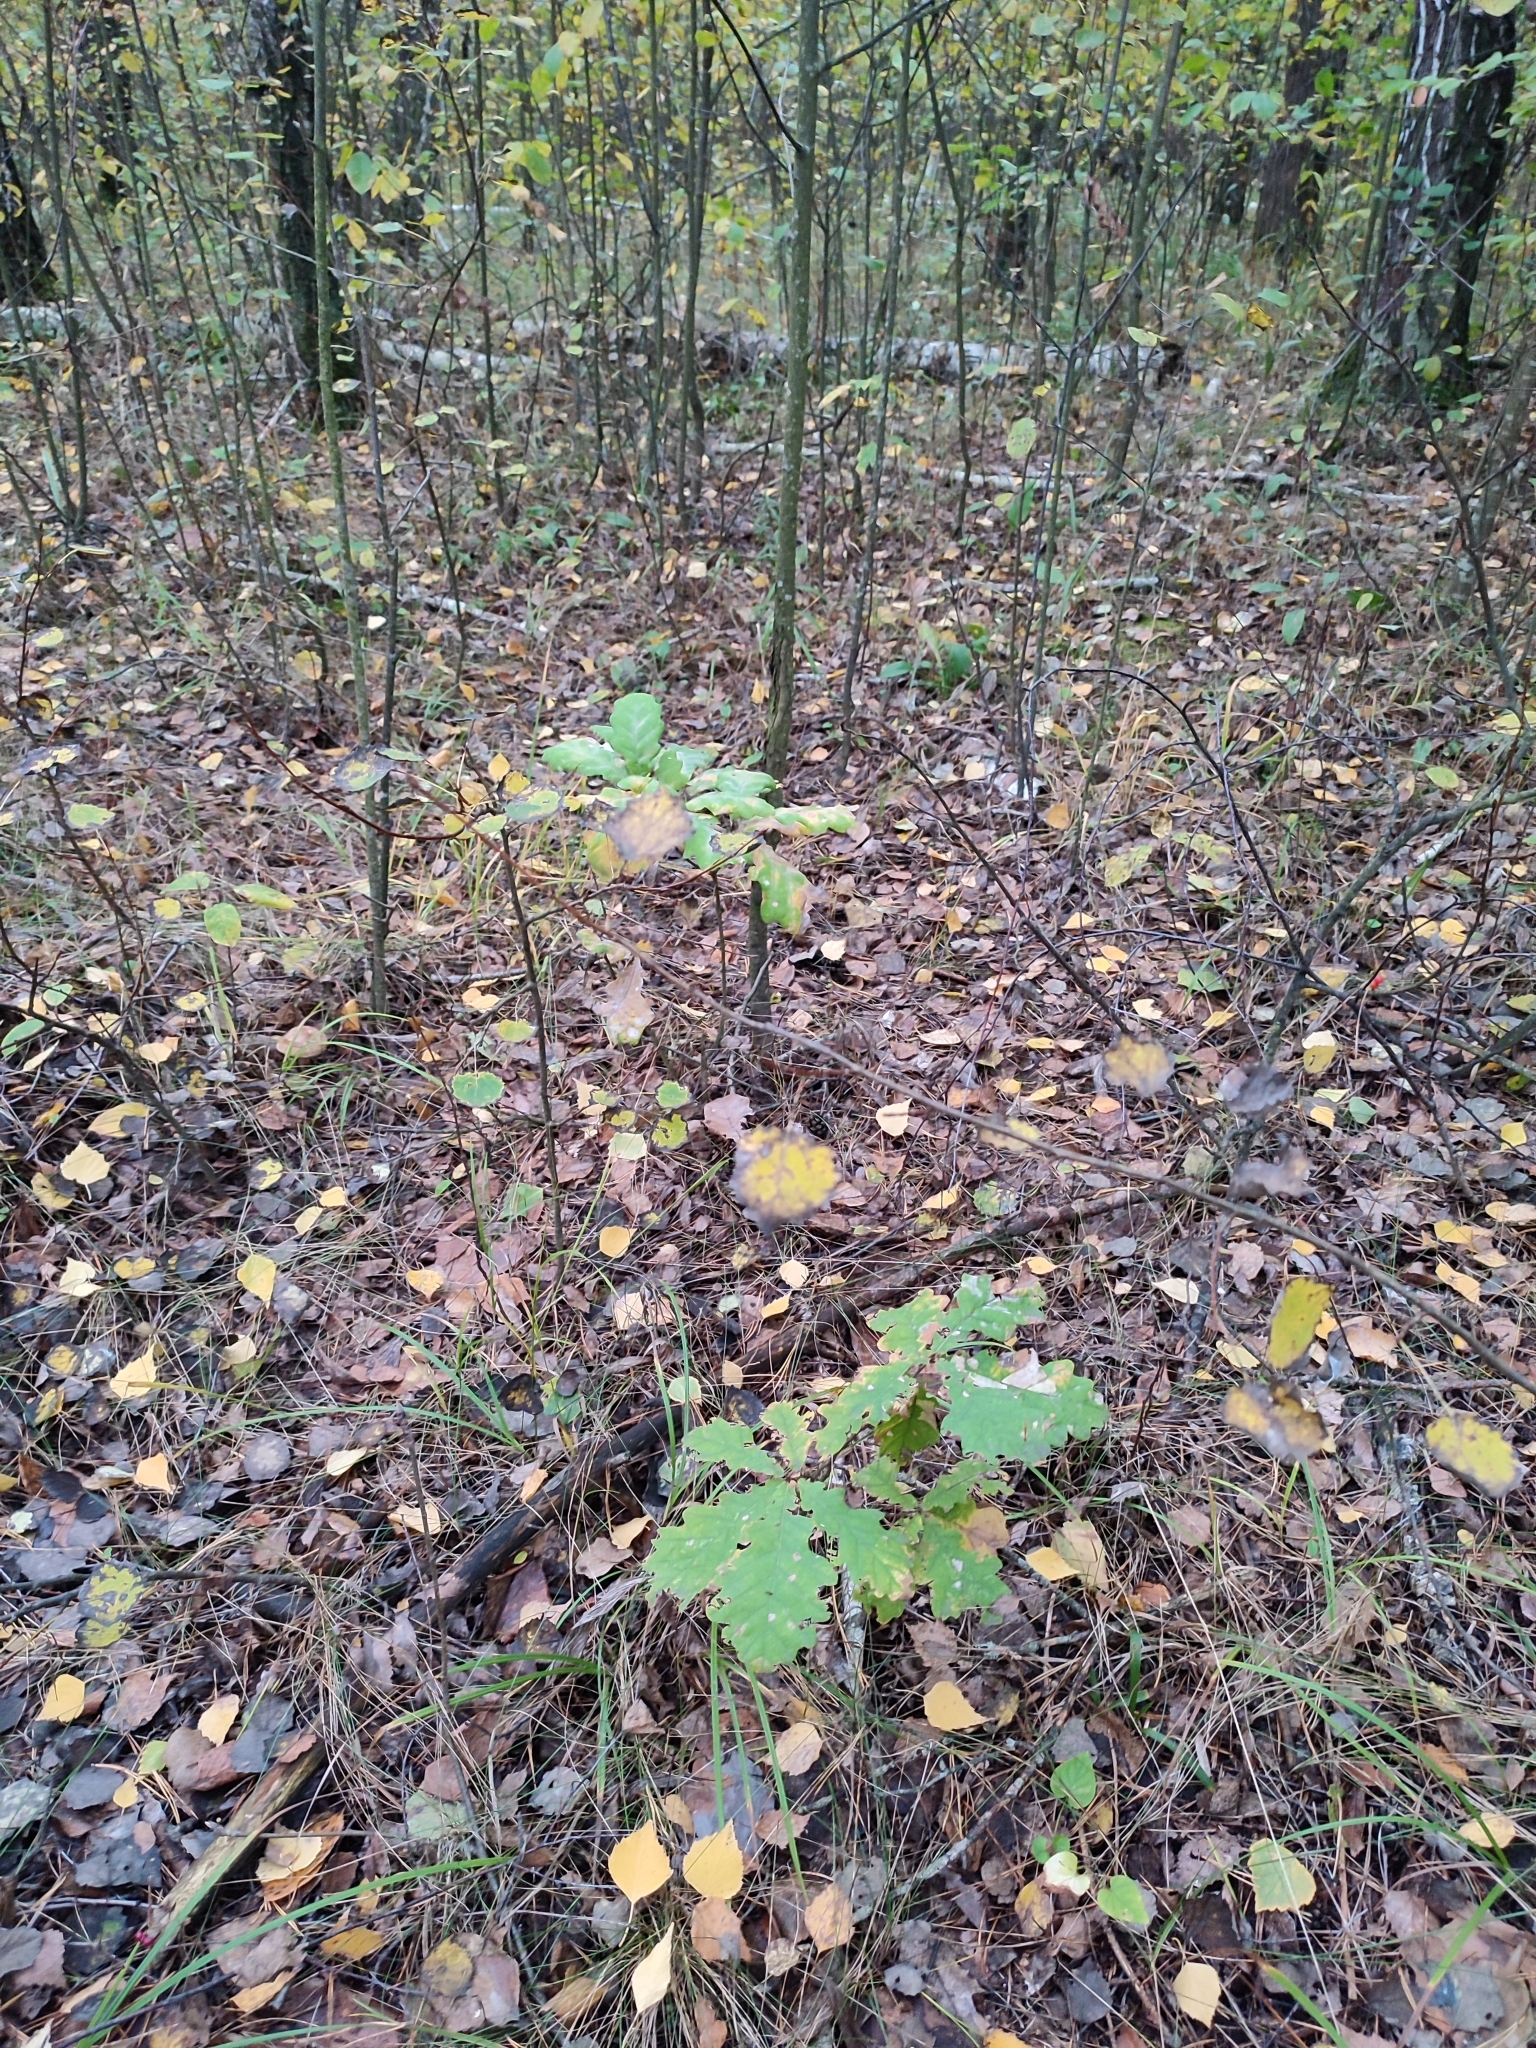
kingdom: Plantae
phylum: Tracheophyta
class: Magnoliopsida
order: Fagales
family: Fagaceae
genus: Quercus
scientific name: Quercus robur
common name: Pedunculate oak
